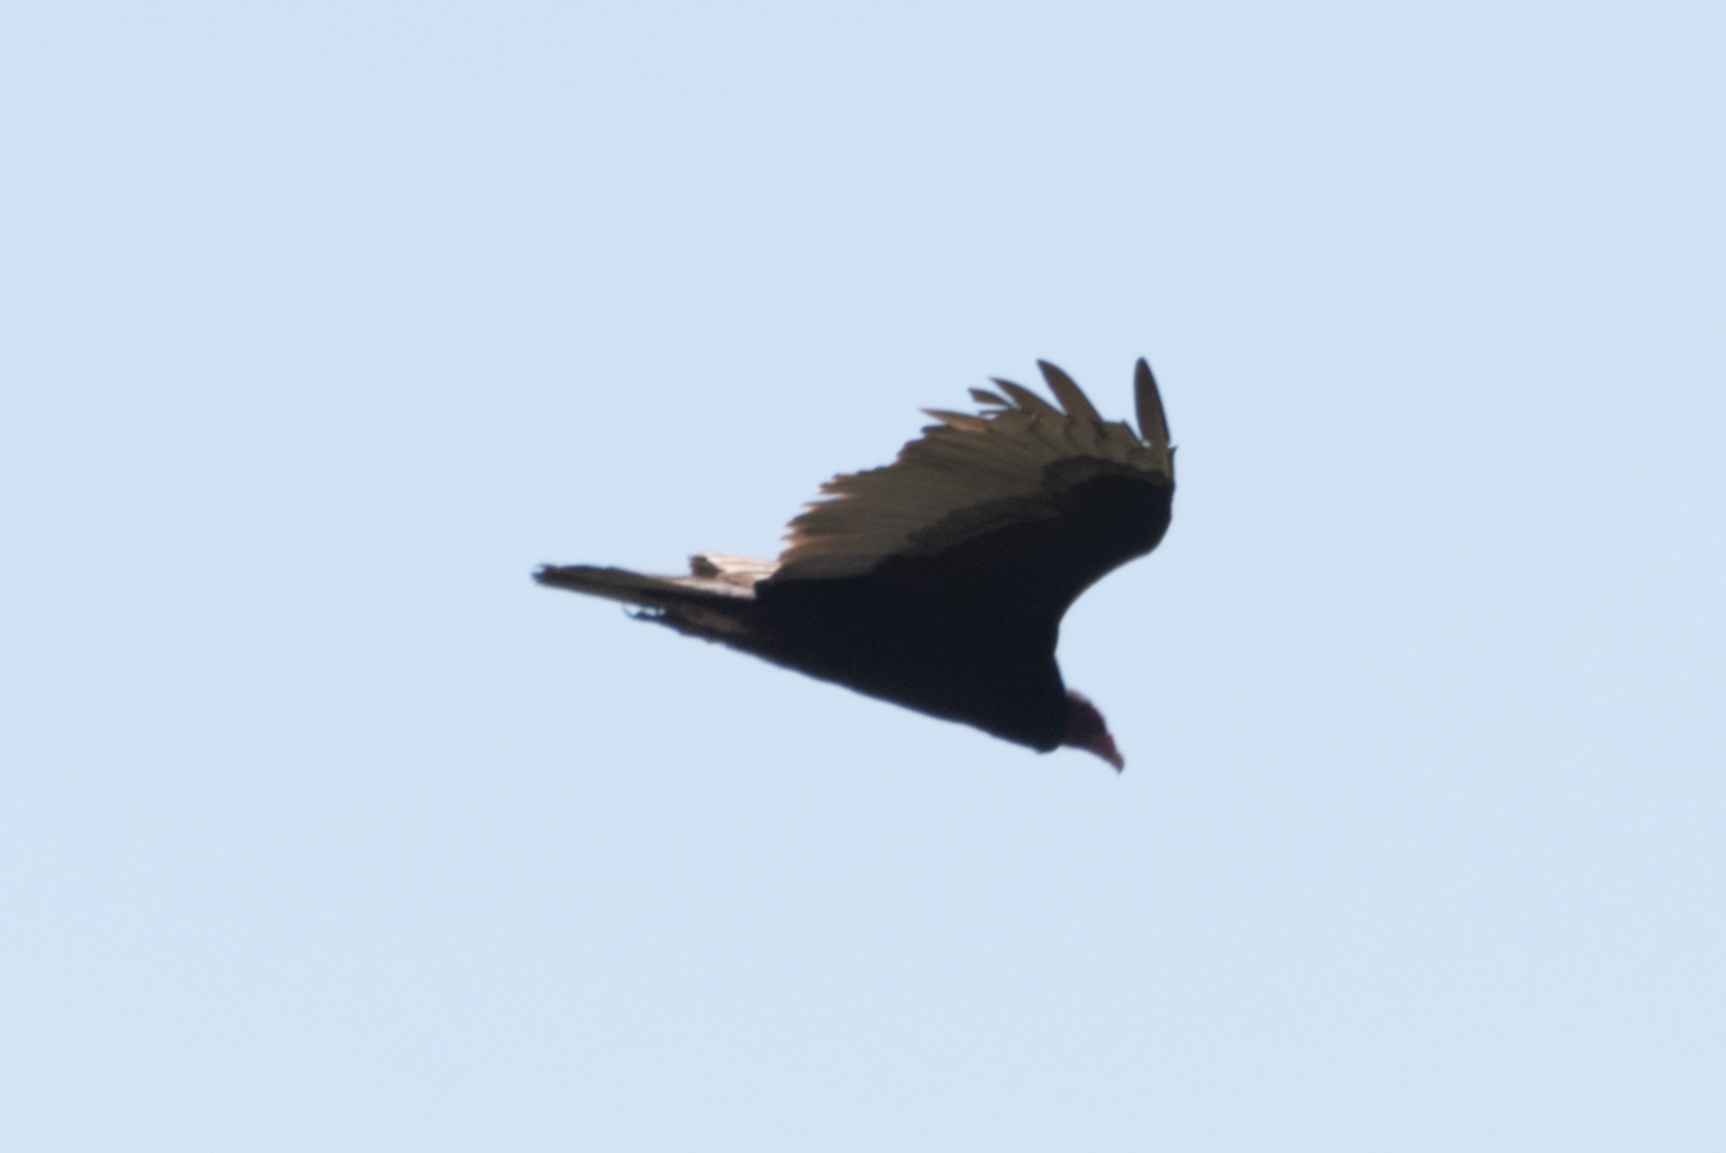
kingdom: Animalia
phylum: Chordata
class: Aves
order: Accipitriformes
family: Cathartidae
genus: Cathartes
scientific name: Cathartes aura
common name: Turkey vulture
